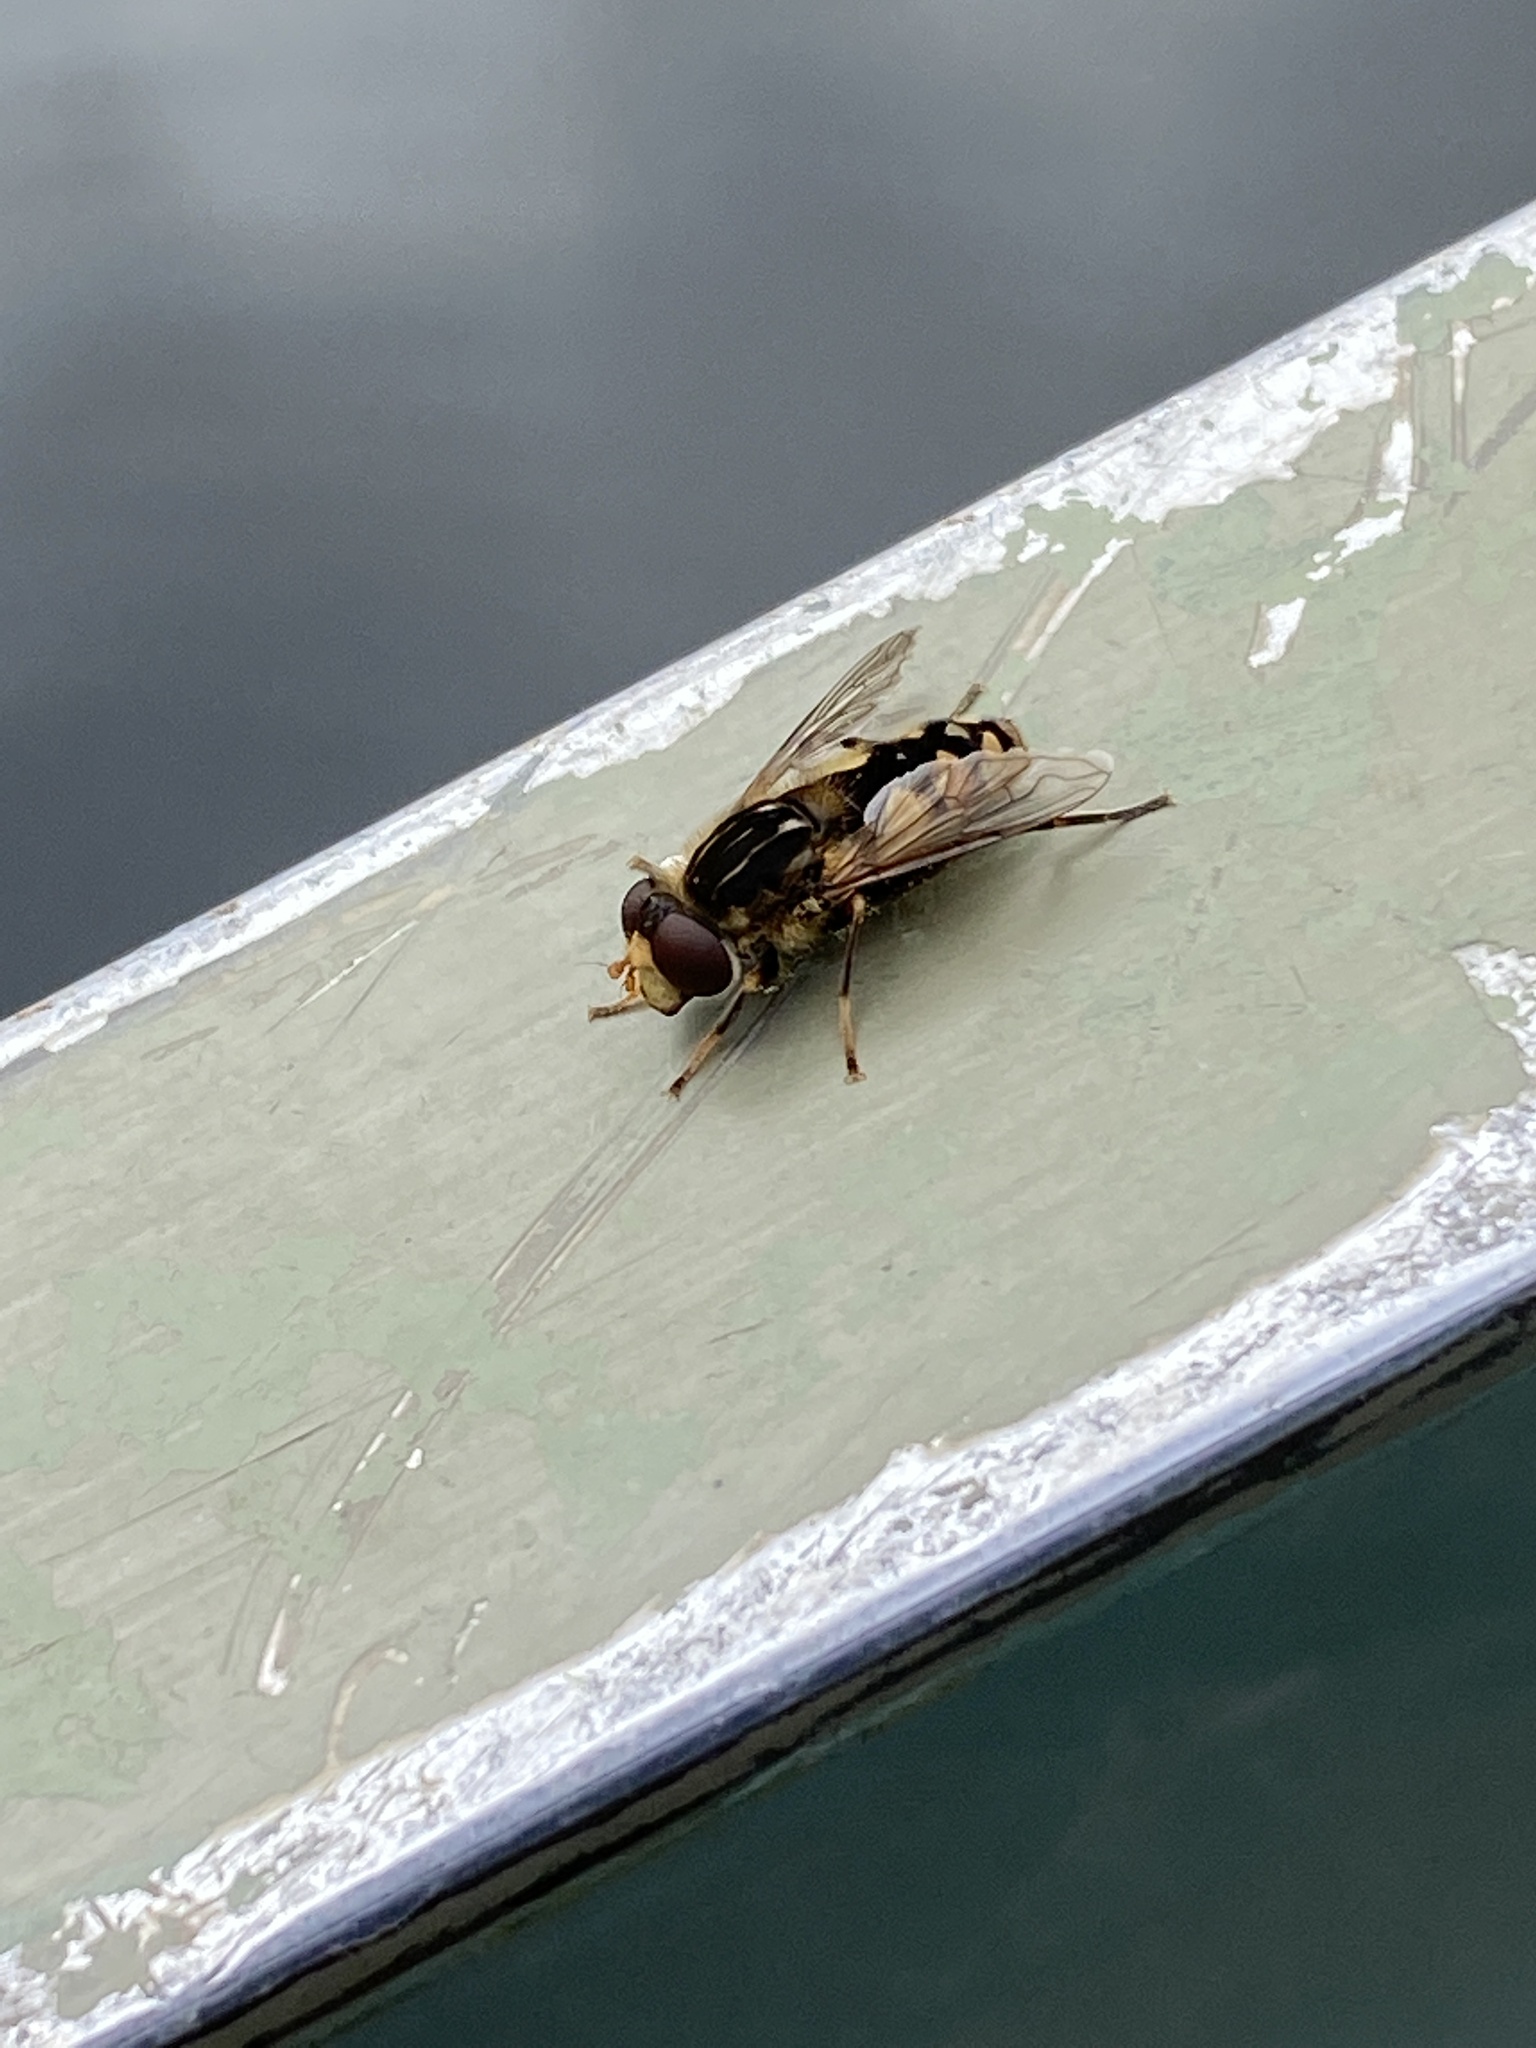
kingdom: Animalia
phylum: Arthropoda
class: Insecta
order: Diptera
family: Syrphidae
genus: Parhelophilus
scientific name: Parhelophilus rex
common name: Dusky bog fly
